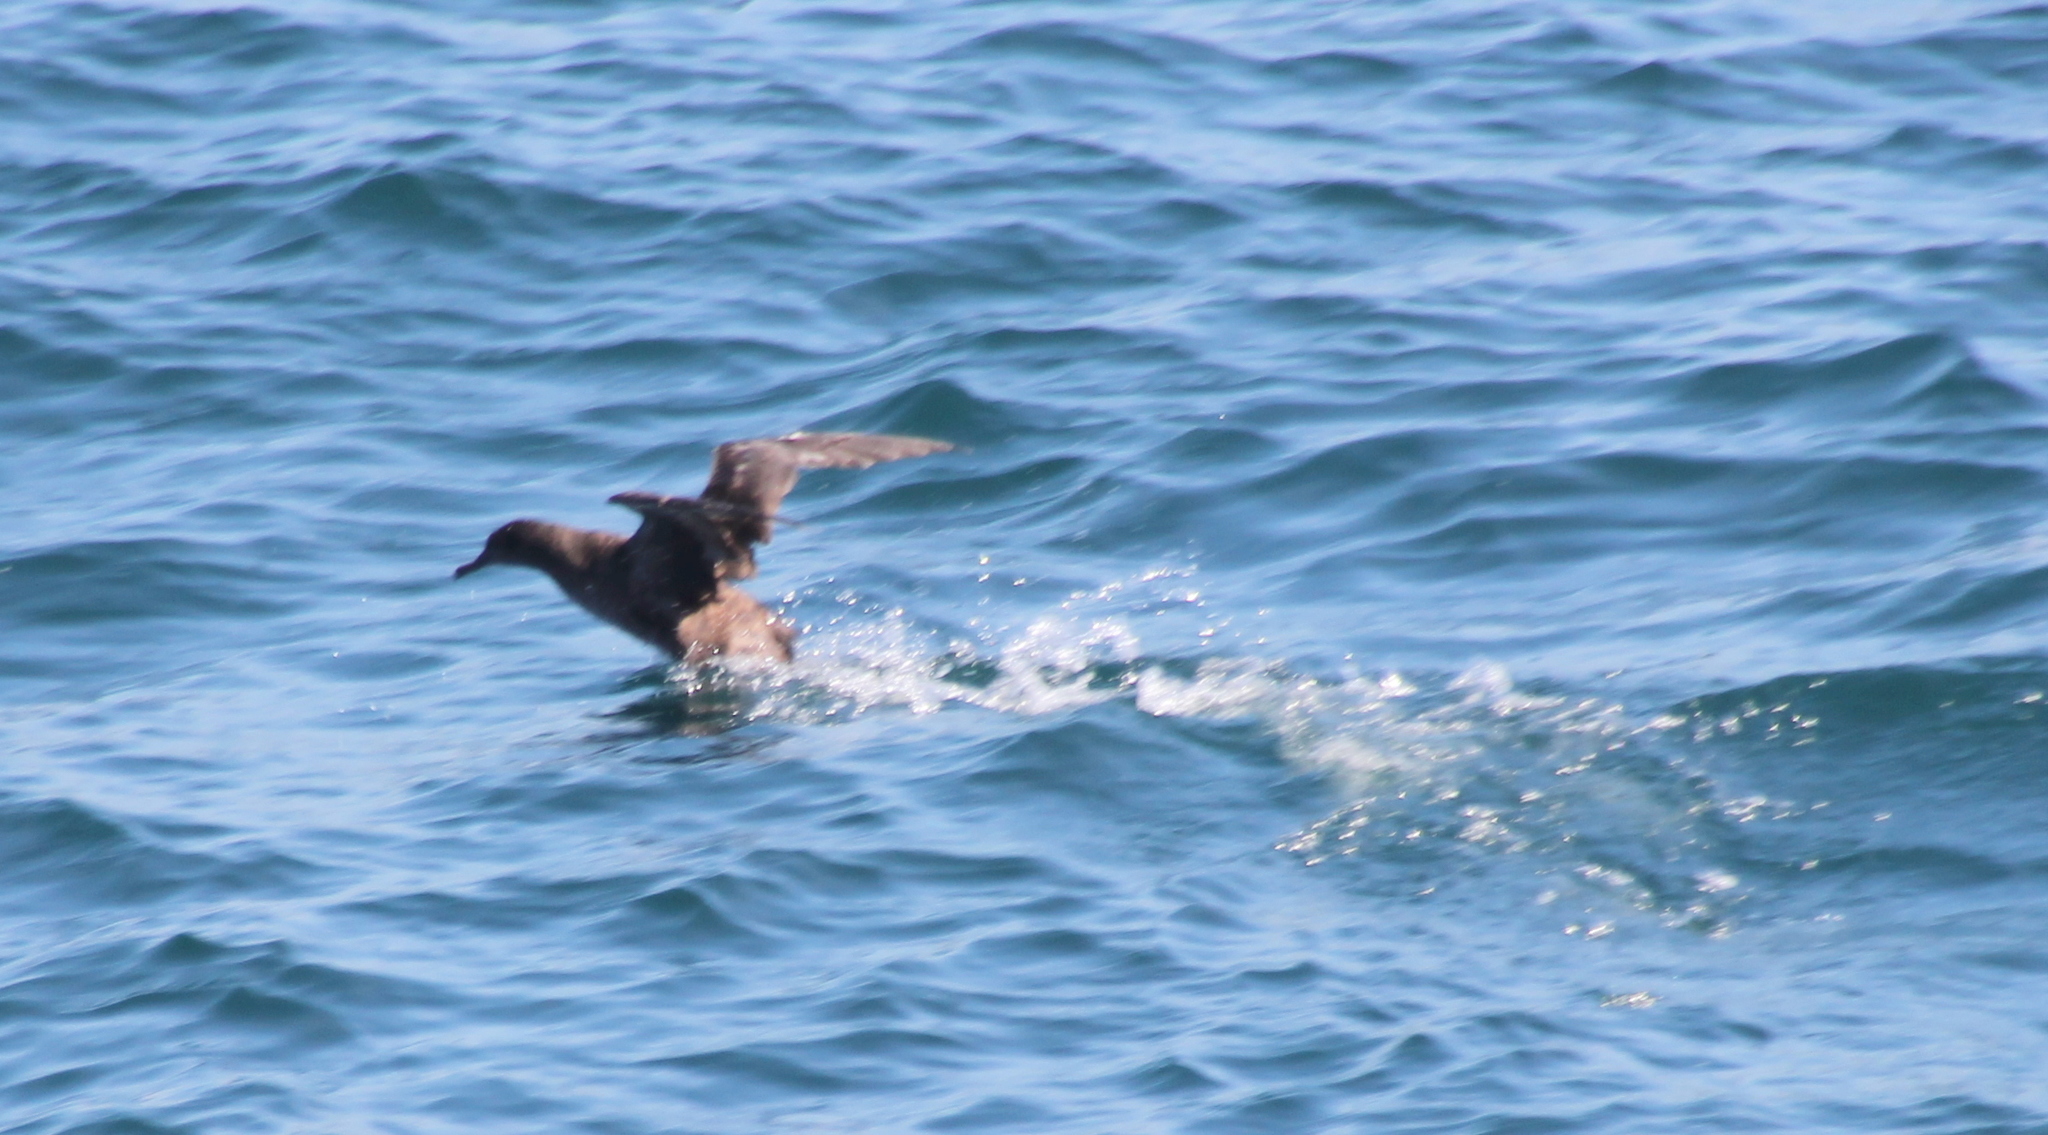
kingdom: Animalia
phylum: Chordata
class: Aves
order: Procellariiformes
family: Procellariidae
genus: Puffinus
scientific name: Puffinus griseus
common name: Sooty shearwater
